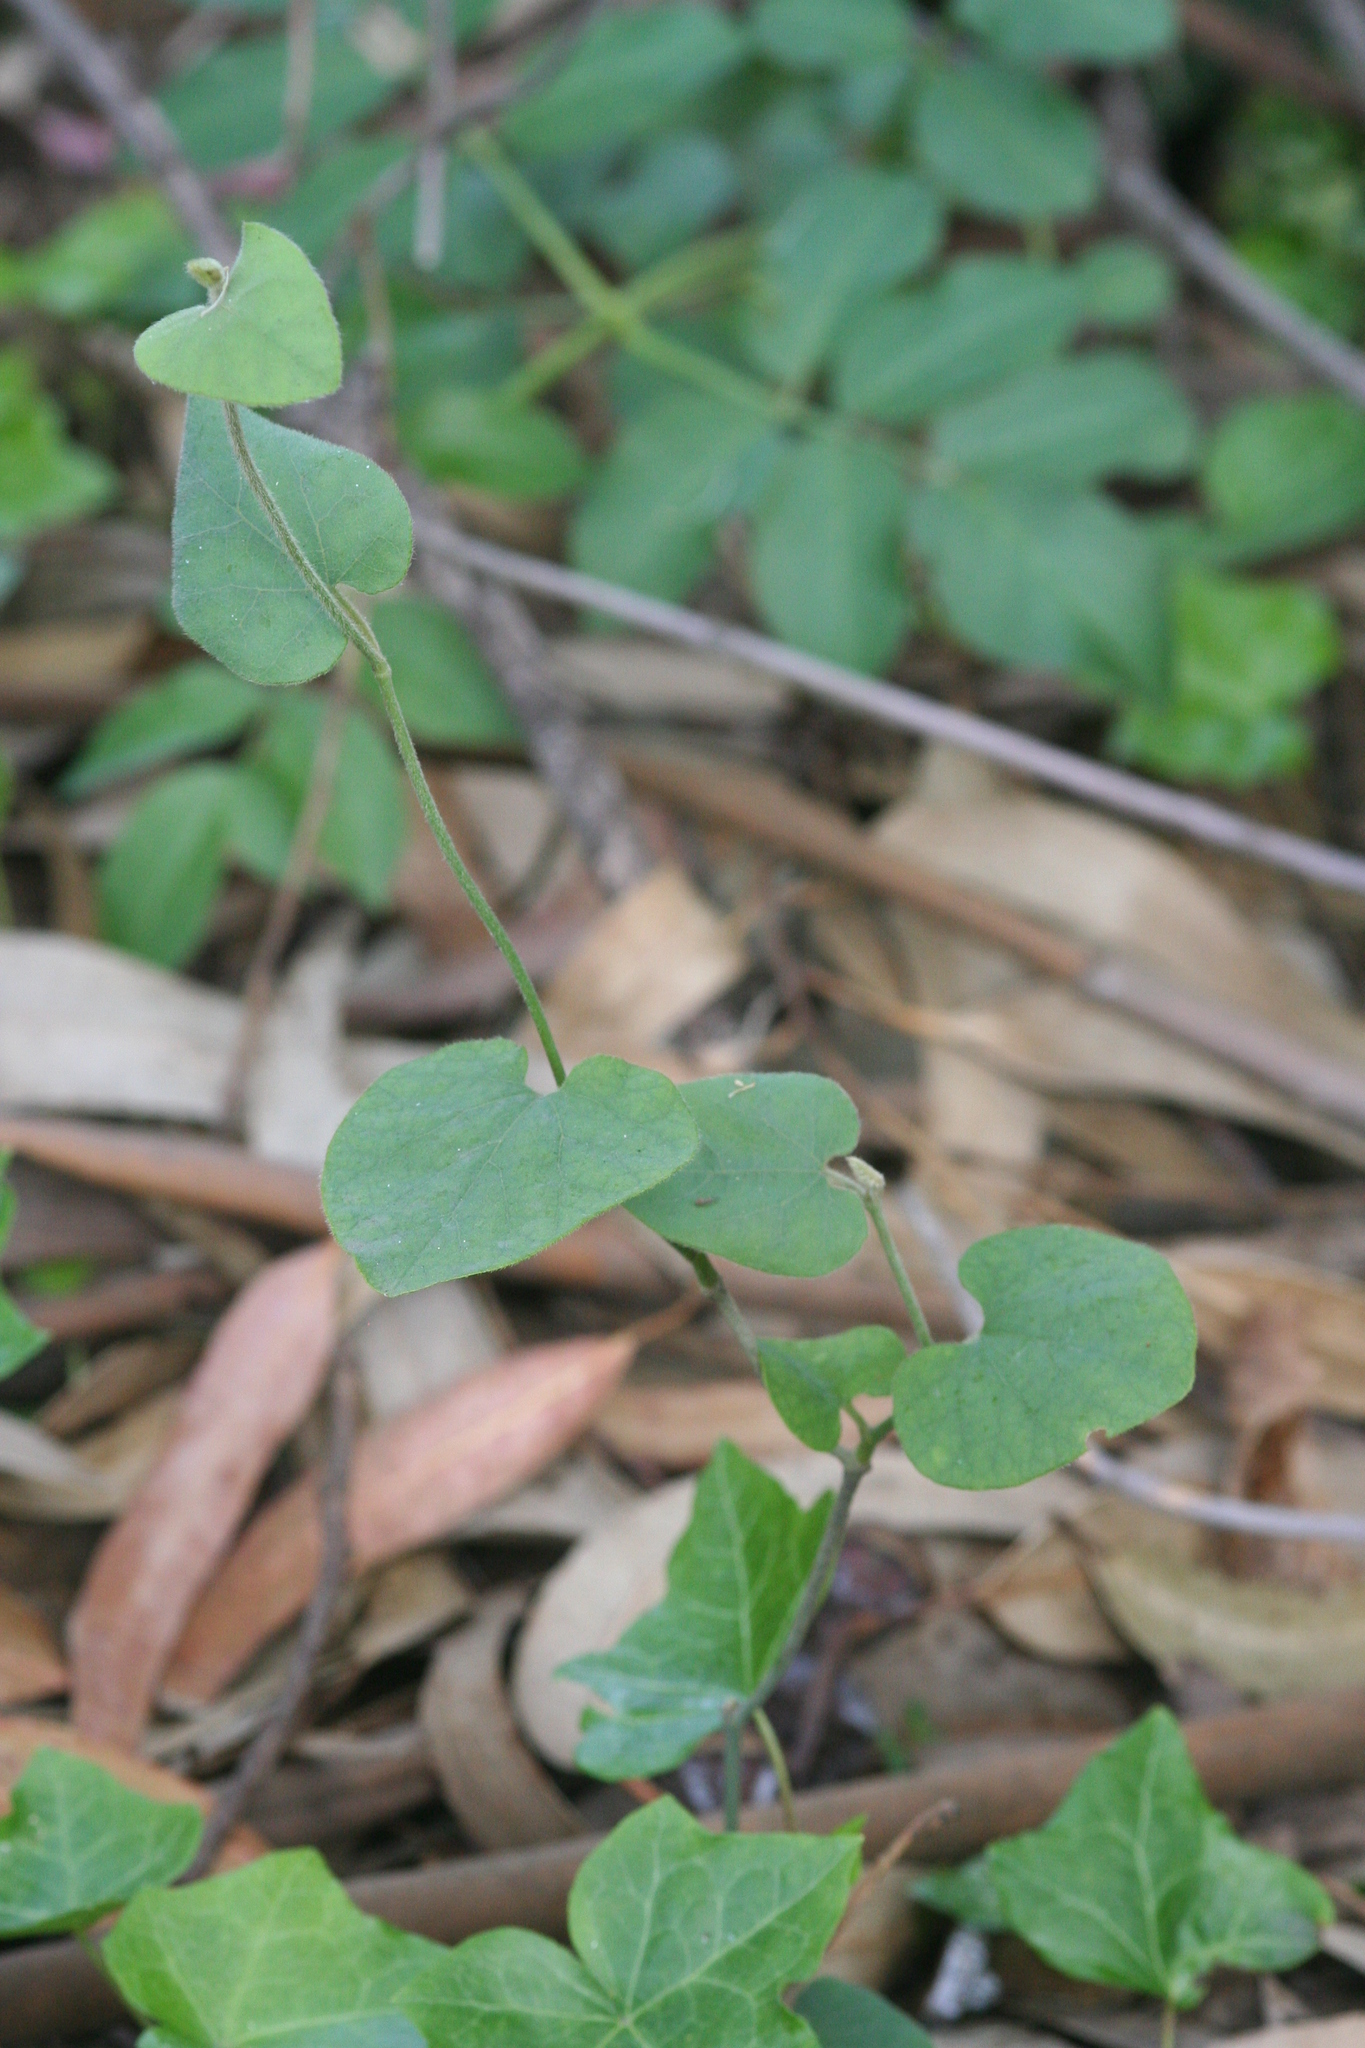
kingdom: Plantae
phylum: Tracheophyta
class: Magnoliopsida
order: Piperales
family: Aristolochiaceae
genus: Isotrema
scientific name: Isotrema californicum
